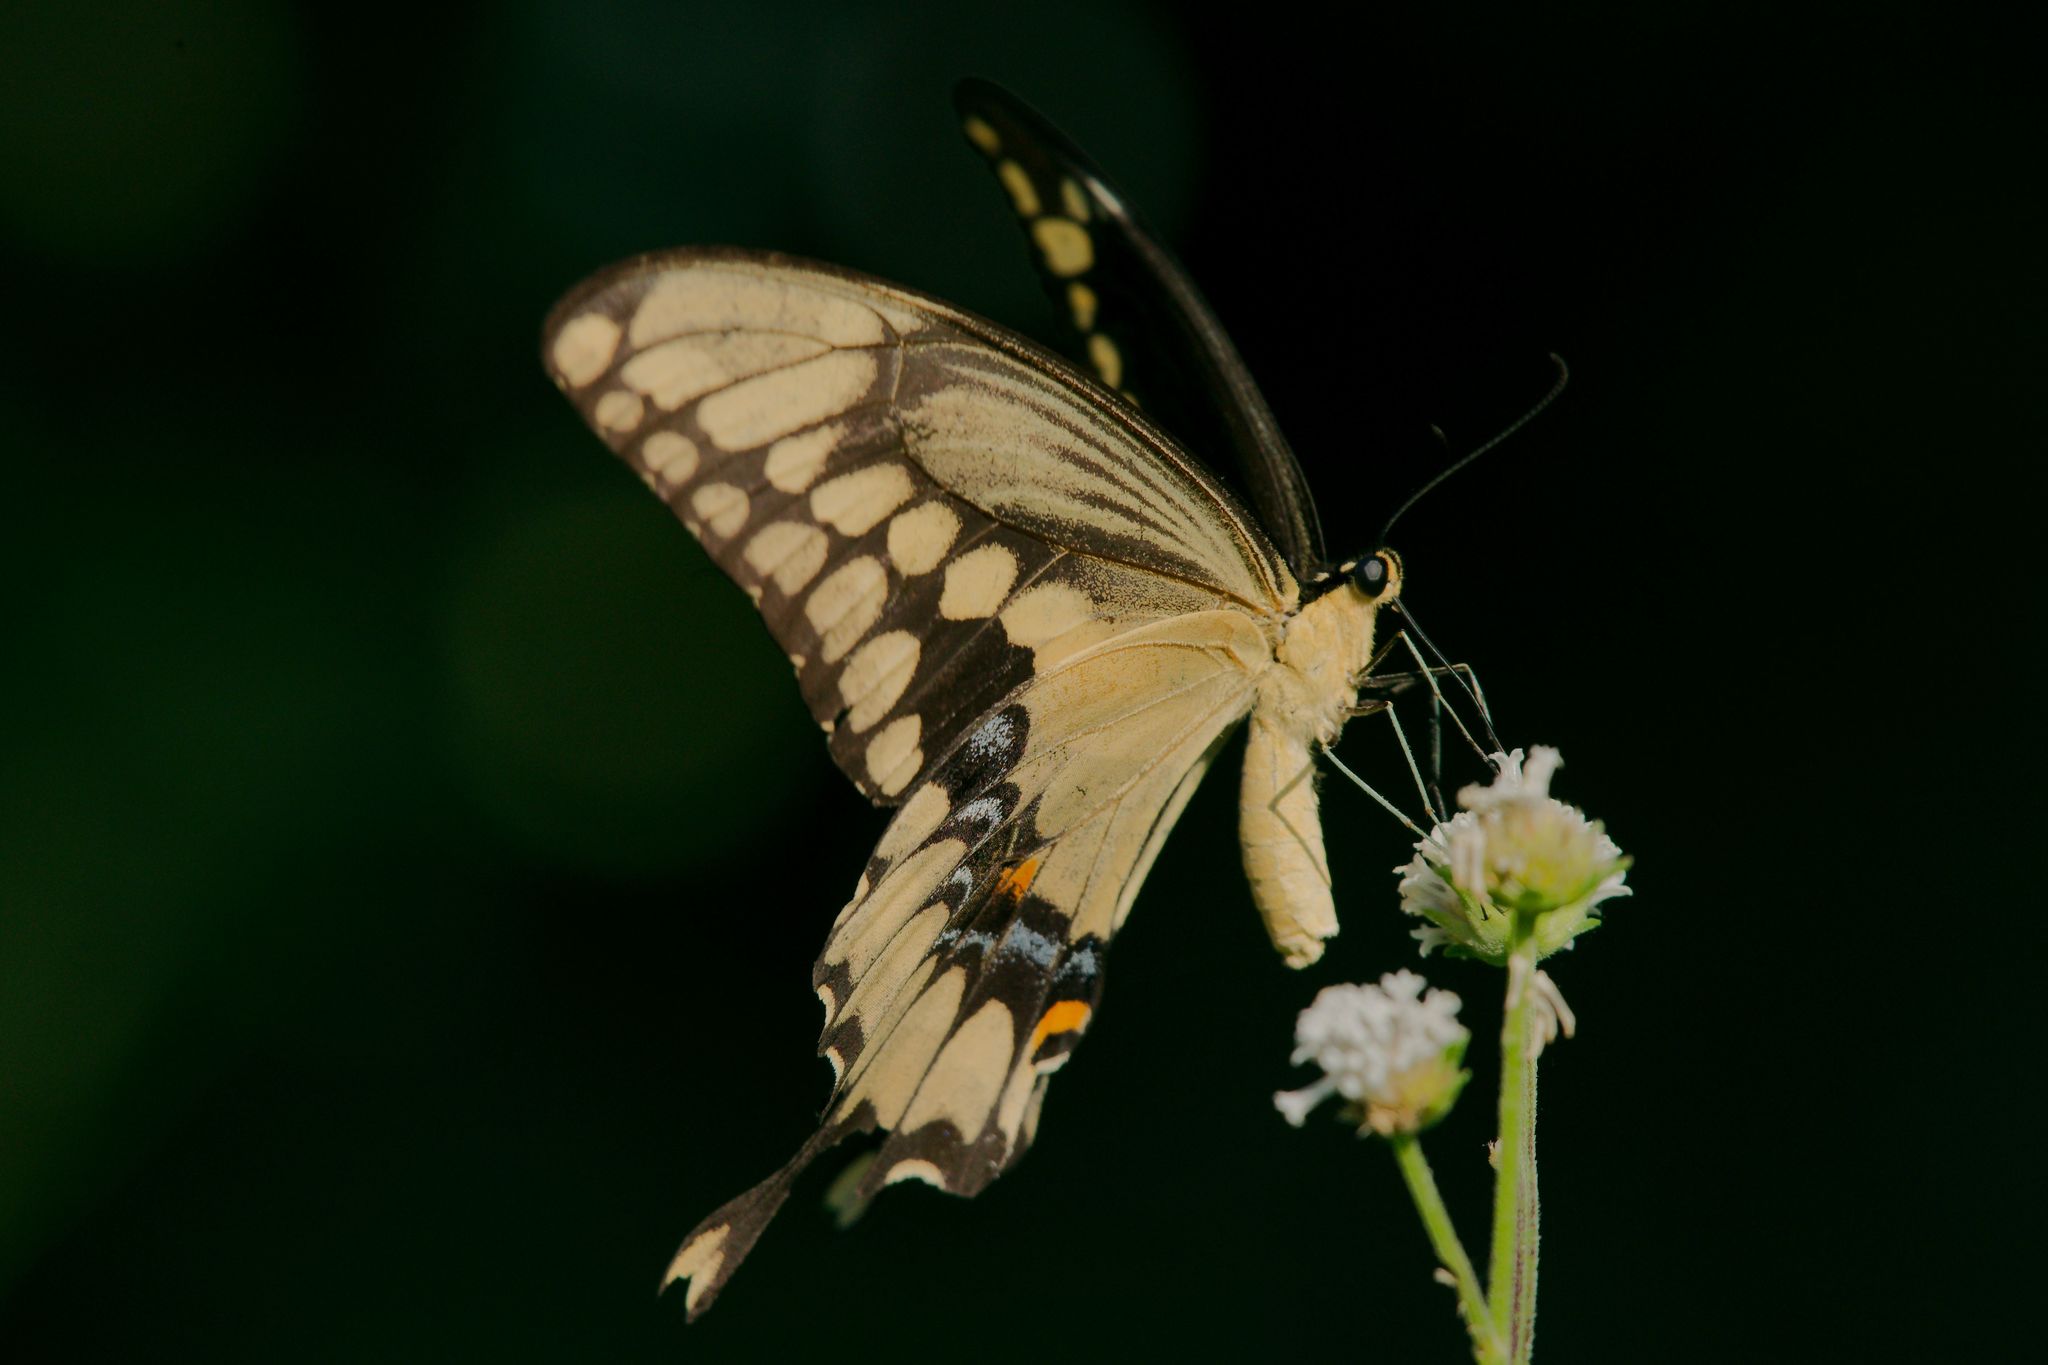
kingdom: Animalia
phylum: Arthropoda
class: Insecta
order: Lepidoptera
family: Papilionidae
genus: Papilio
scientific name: Papilio cresphontes
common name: Giant swallowtail
